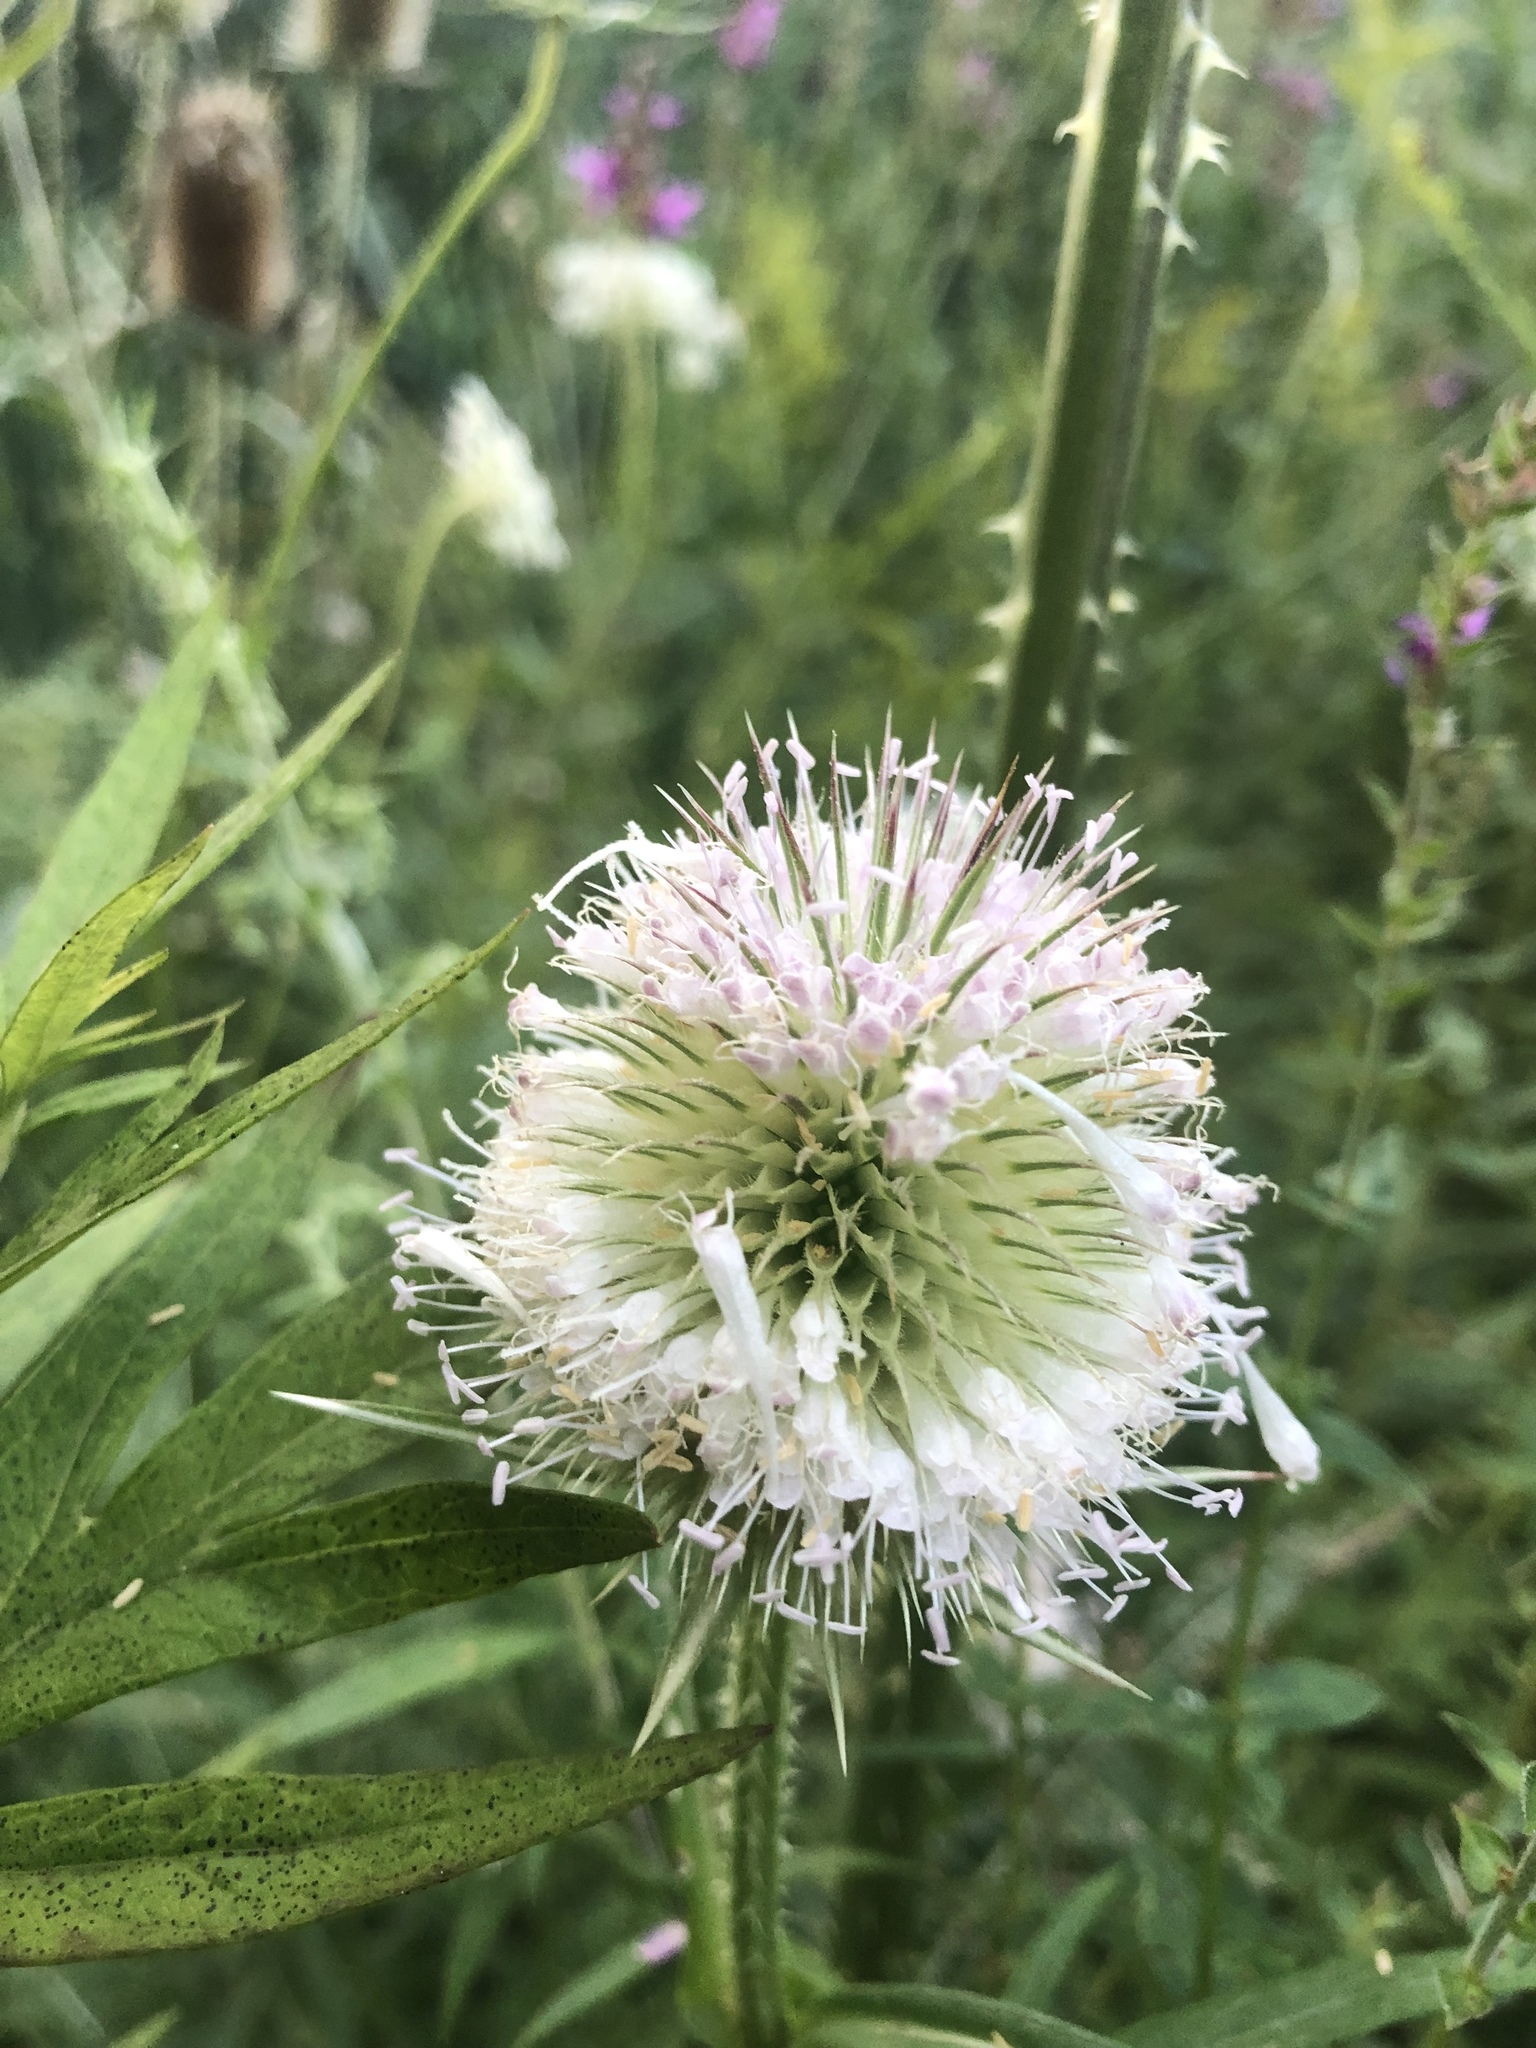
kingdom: Plantae
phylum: Tracheophyta
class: Magnoliopsida
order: Dipsacales
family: Caprifoliaceae
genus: Dipsacus
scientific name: Dipsacus laciniatus
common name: Cut-leaved teasel
